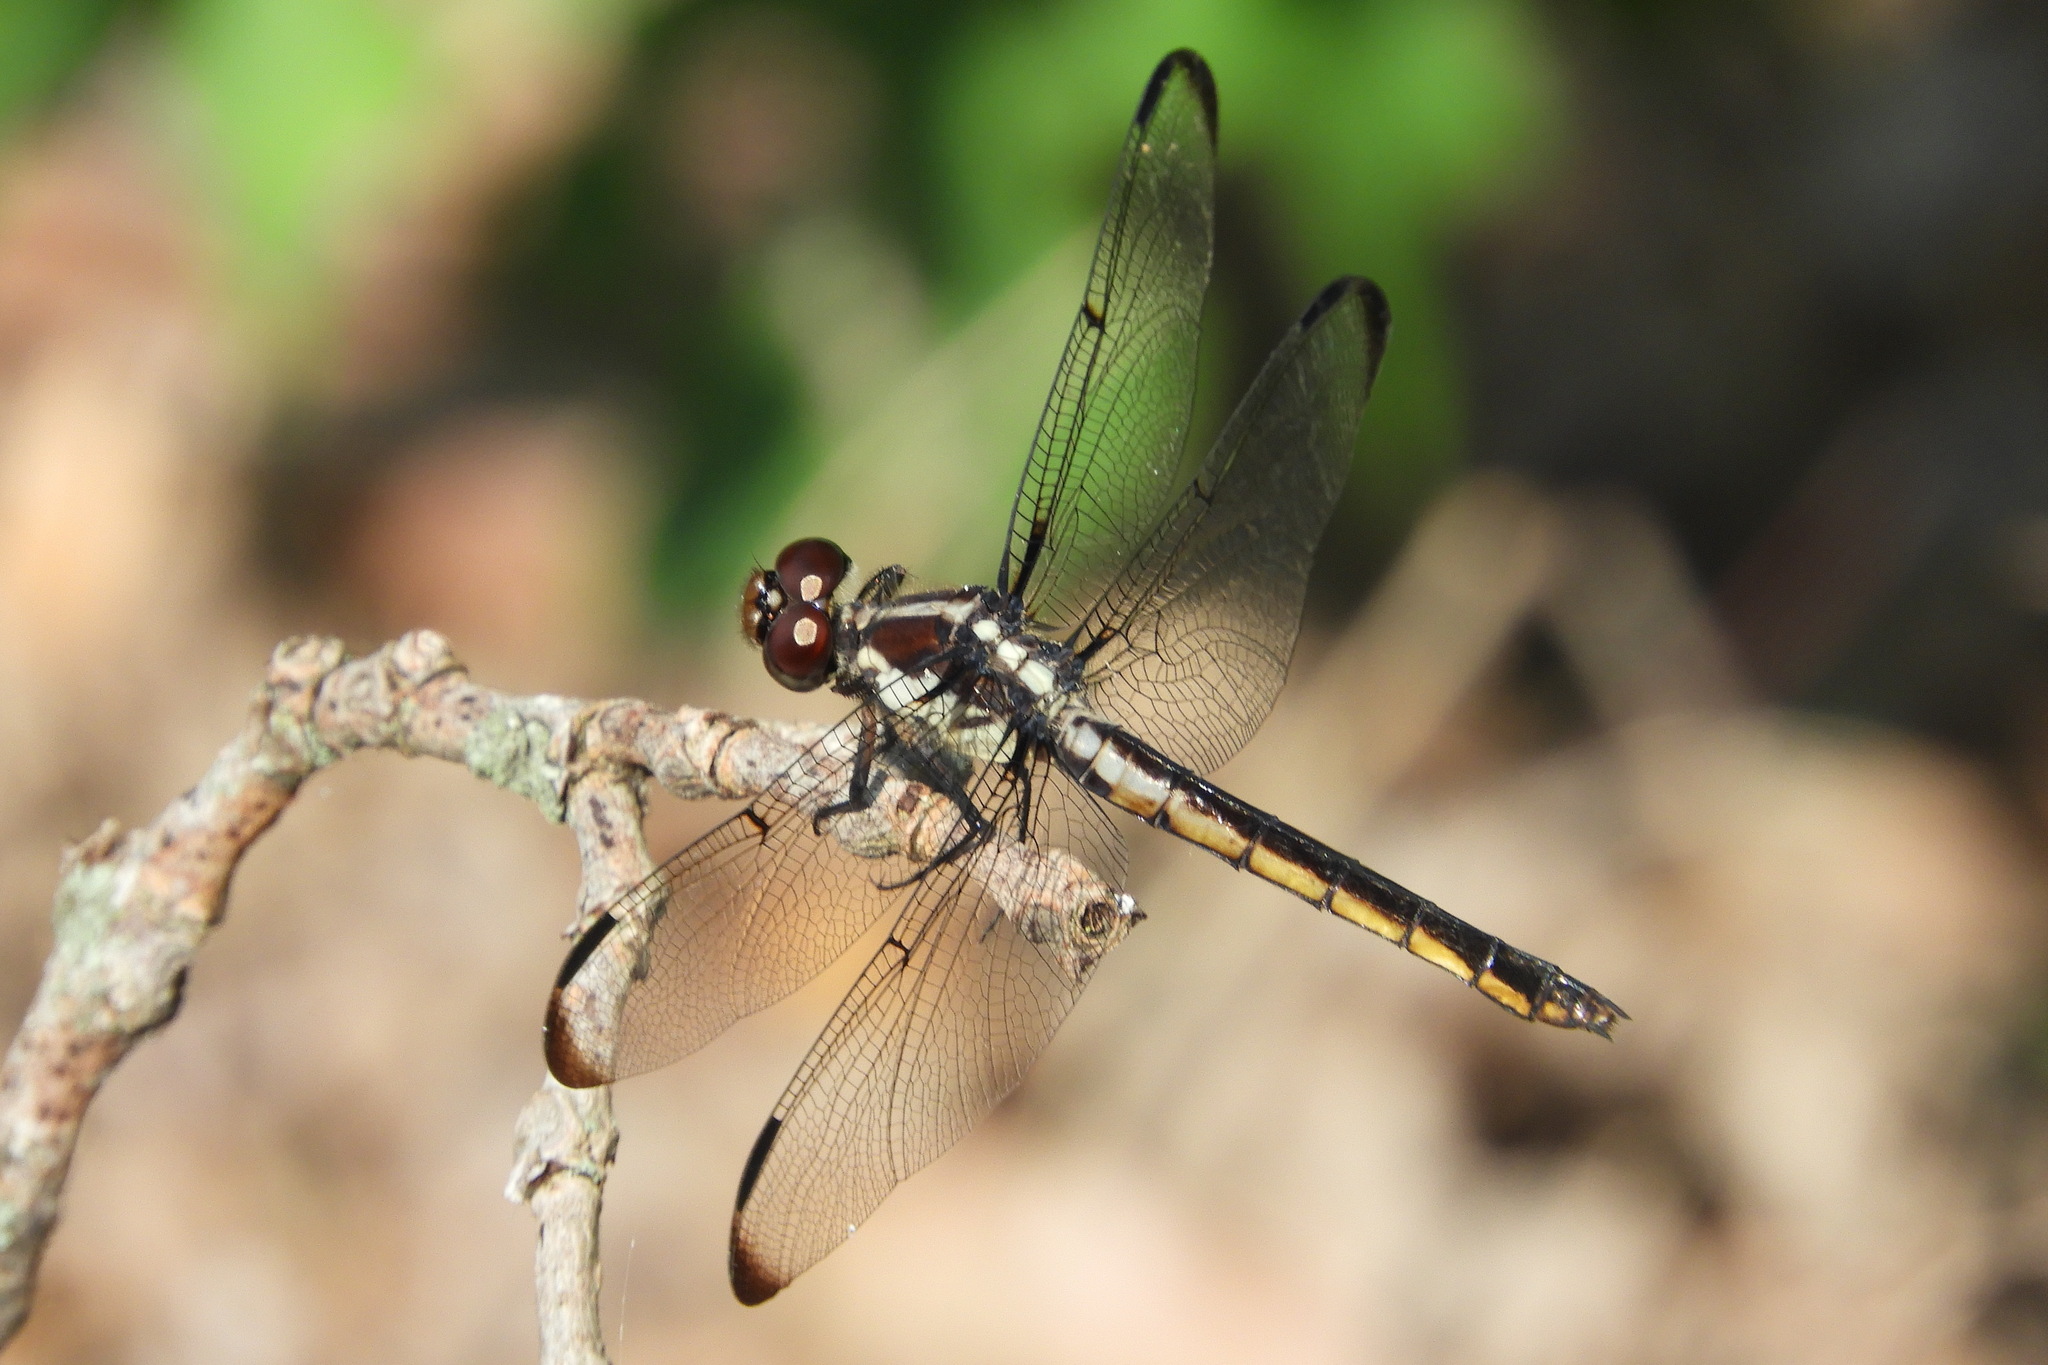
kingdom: Animalia
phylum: Arthropoda
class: Insecta
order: Odonata
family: Libellulidae
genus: Libellula
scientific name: Libellula incesta
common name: Slaty skimmer
